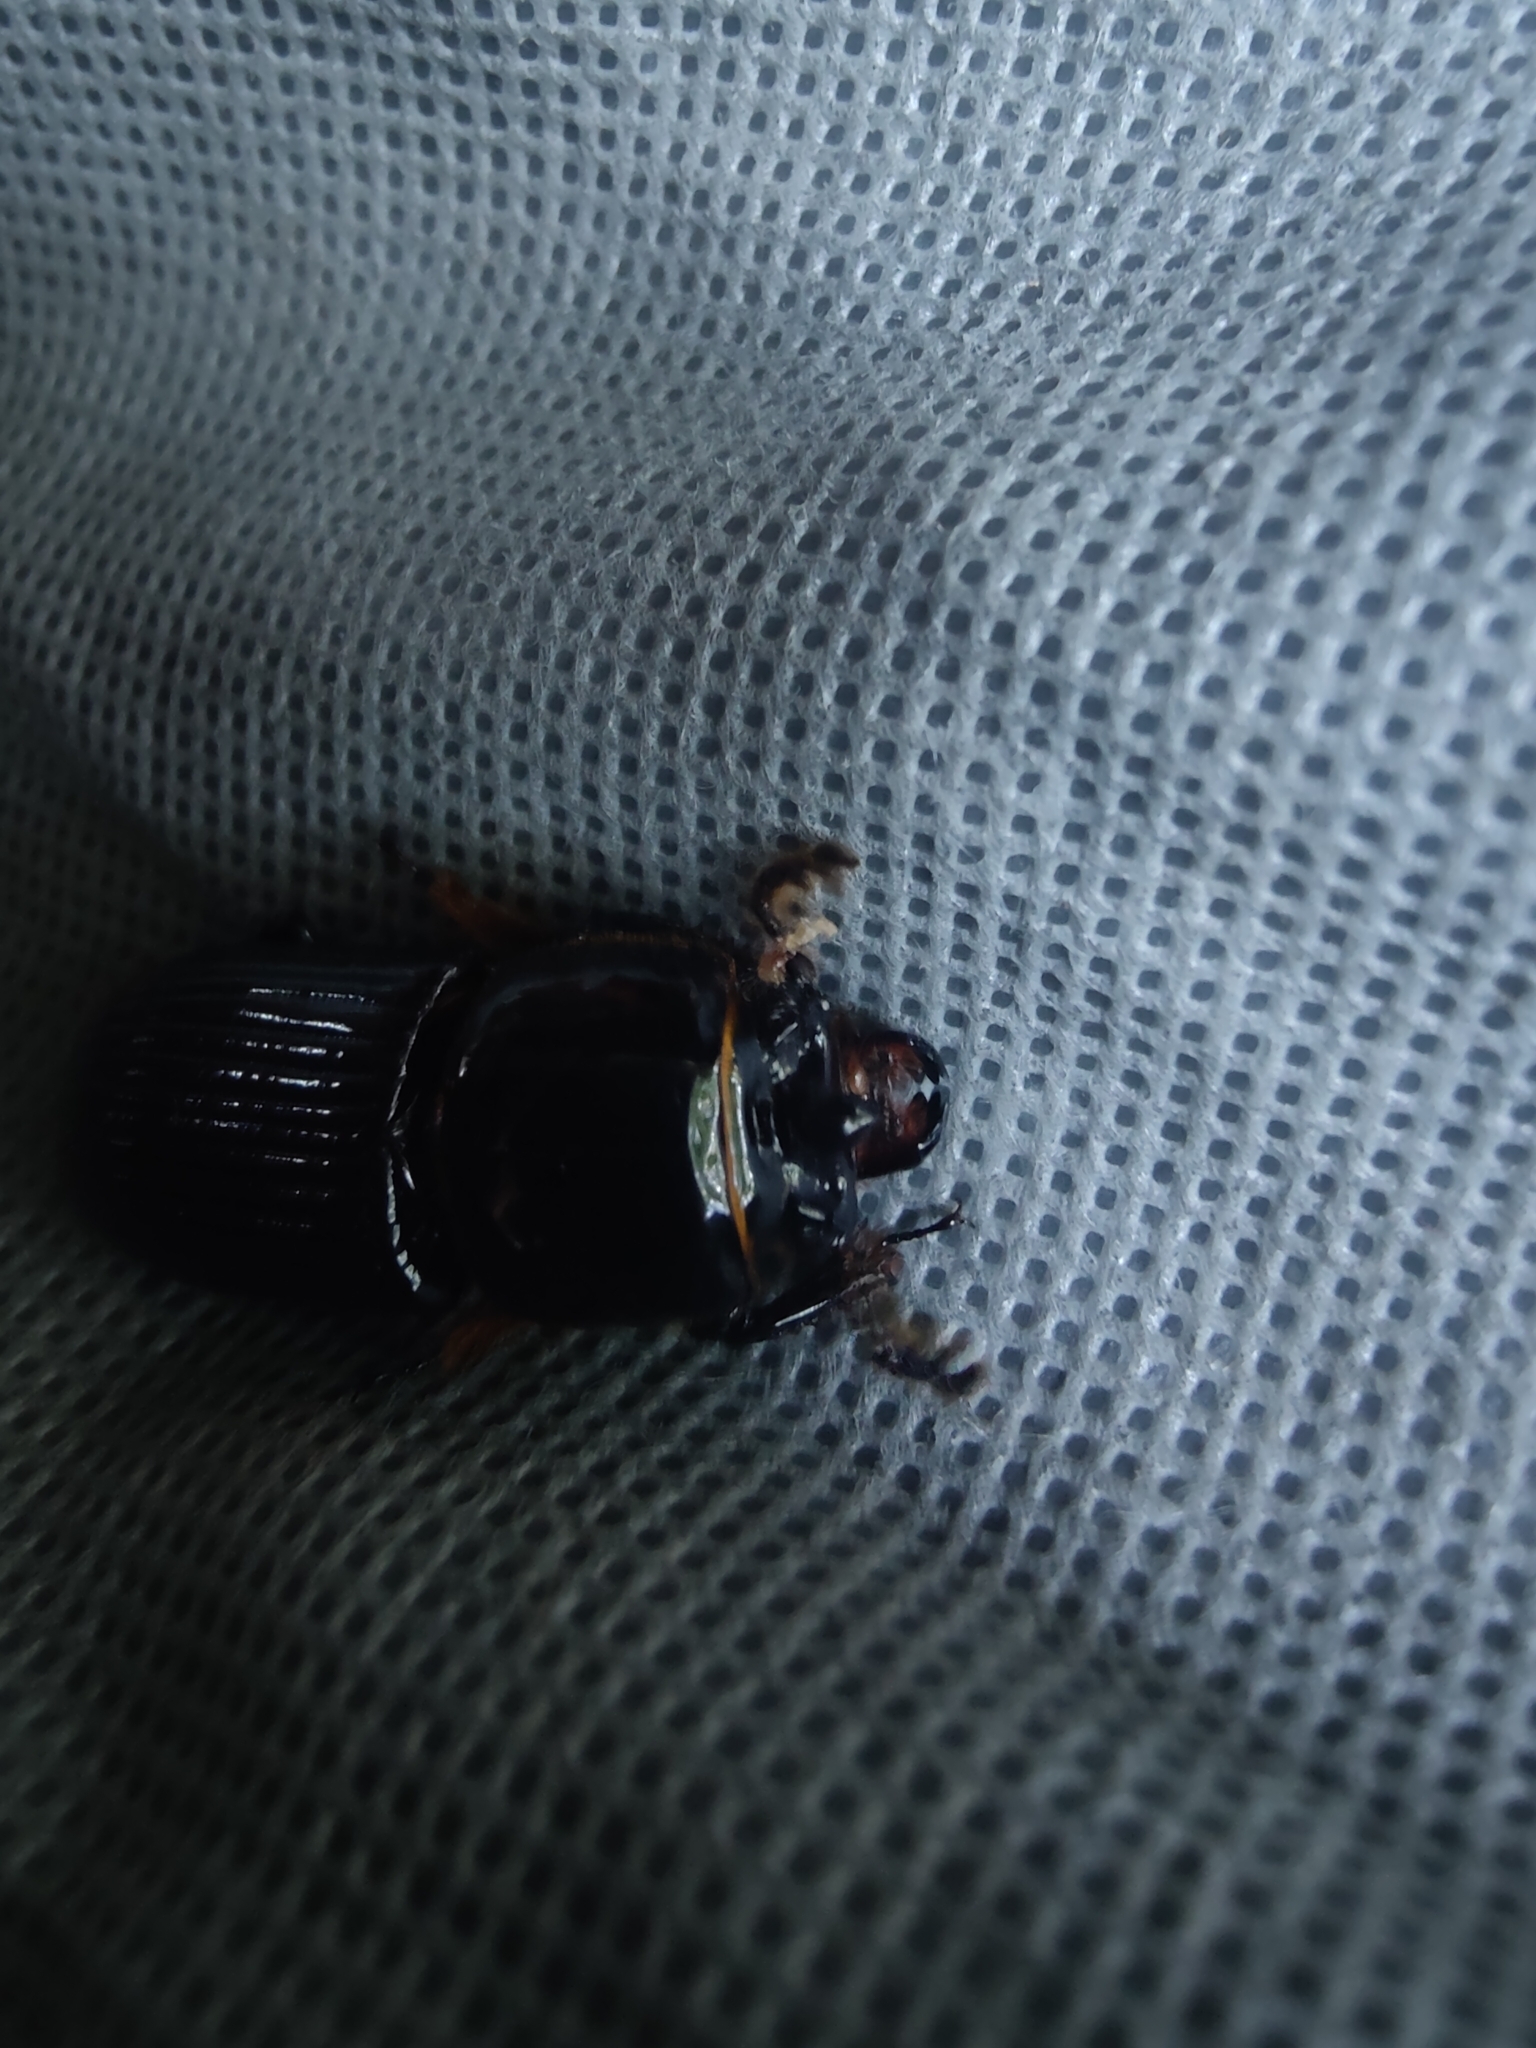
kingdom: Animalia
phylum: Arthropoda
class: Insecta
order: Coleoptera
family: Passalidae
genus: Odontotaenius
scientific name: Odontotaenius disjunctus
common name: Patent leather beetle
